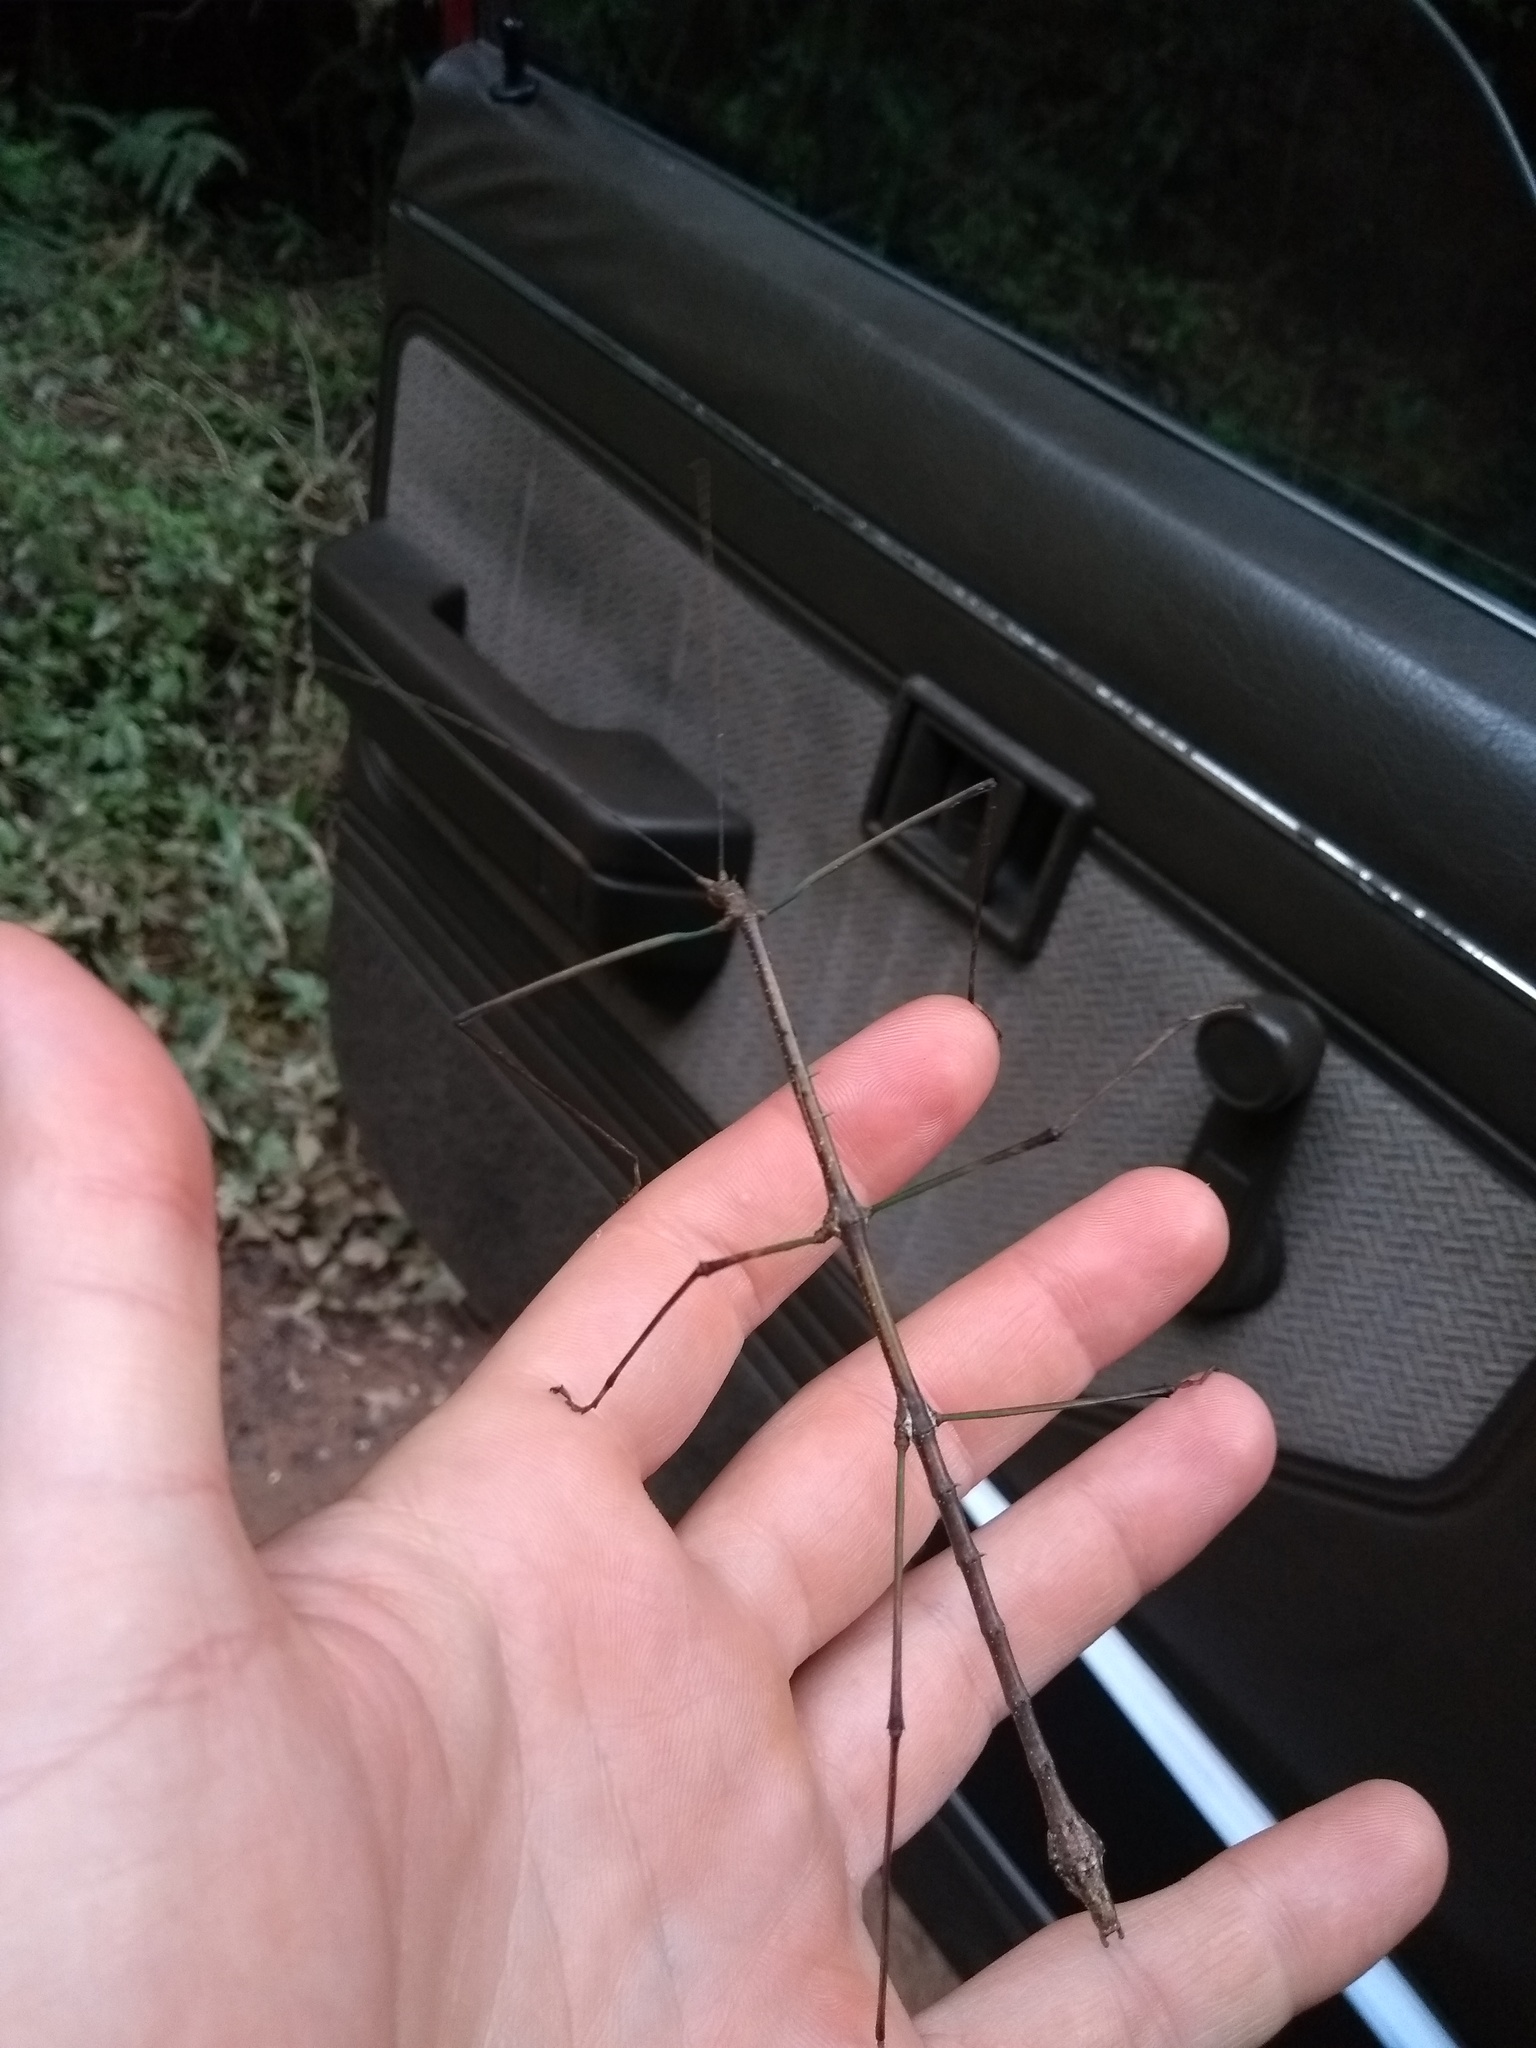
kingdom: Animalia
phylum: Arthropoda
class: Insecta
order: Phasmida
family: Heteronemiidae
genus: Canuleius
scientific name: Canuleius grandis
